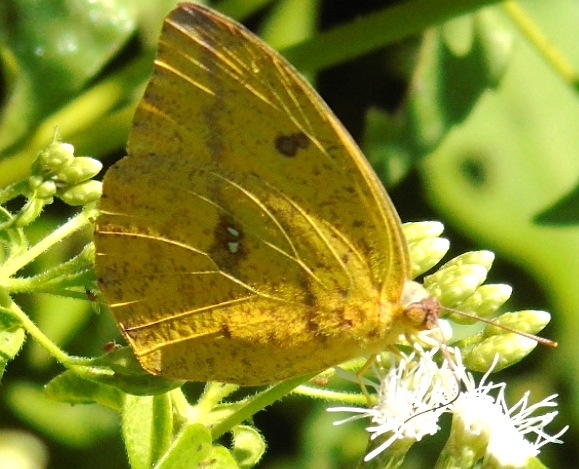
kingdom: Animalia
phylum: Arthropoda
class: Insecta
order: Lepidoptera
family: Pieridae
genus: Phoebis
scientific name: Phoebis agarithe
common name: Large orange sulphur
